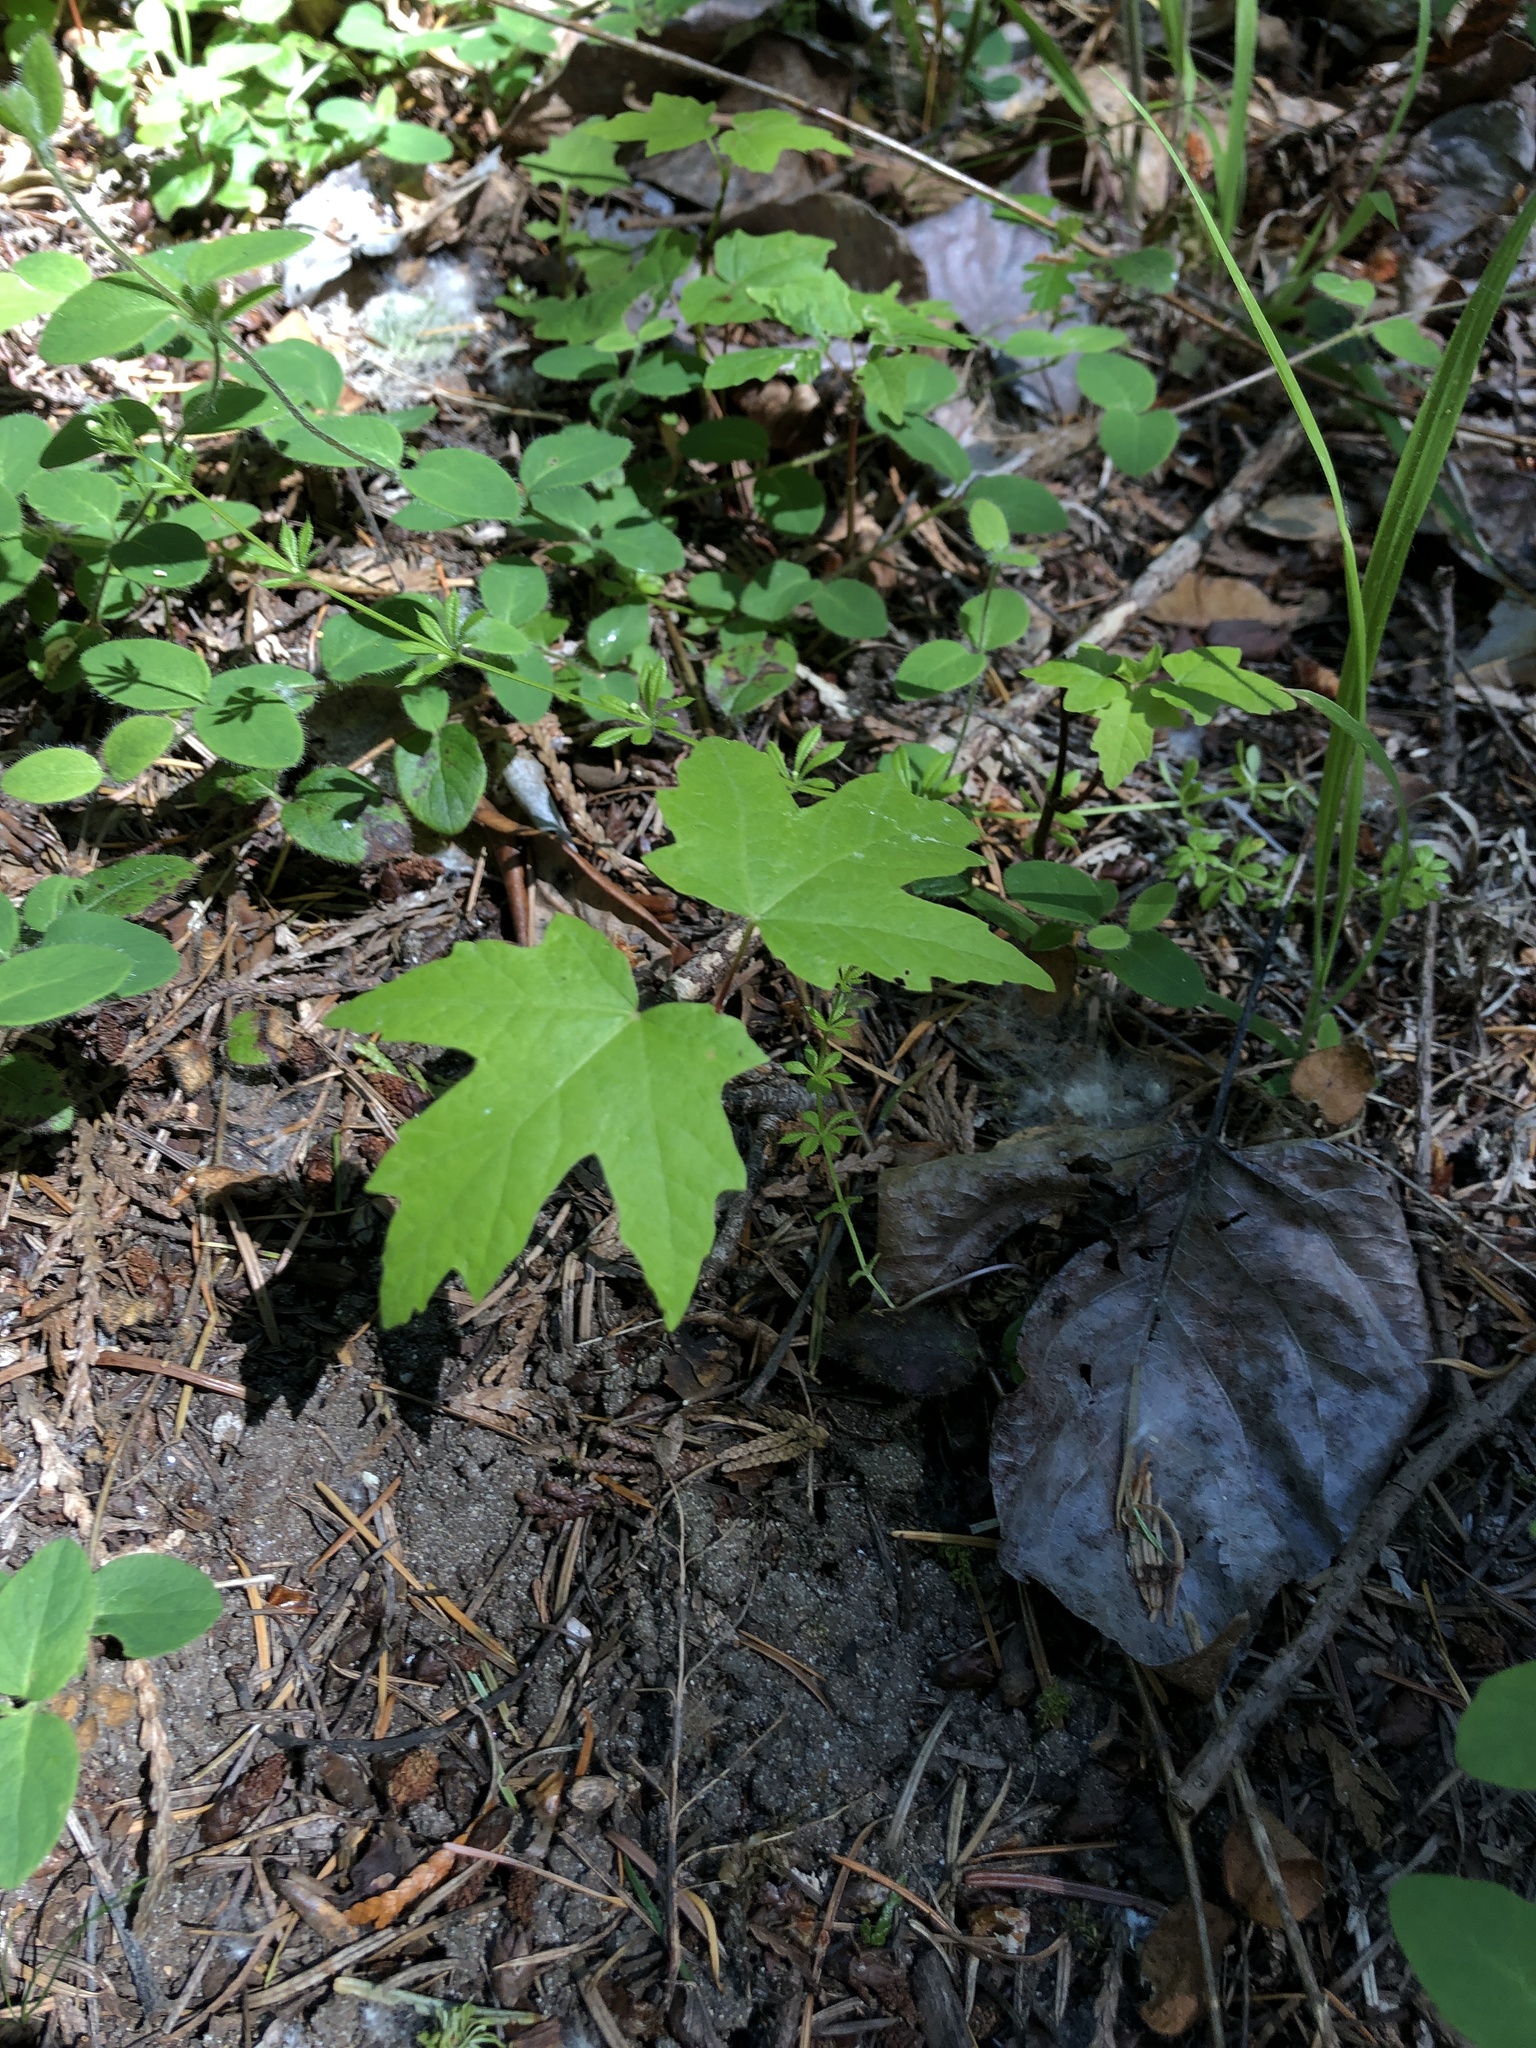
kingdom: Plantae
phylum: Tracheophyta
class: Magnoliopsida
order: Sapindales
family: Sapindaceae
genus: Acer
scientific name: Acer macrophyllum
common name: Oregon maple
